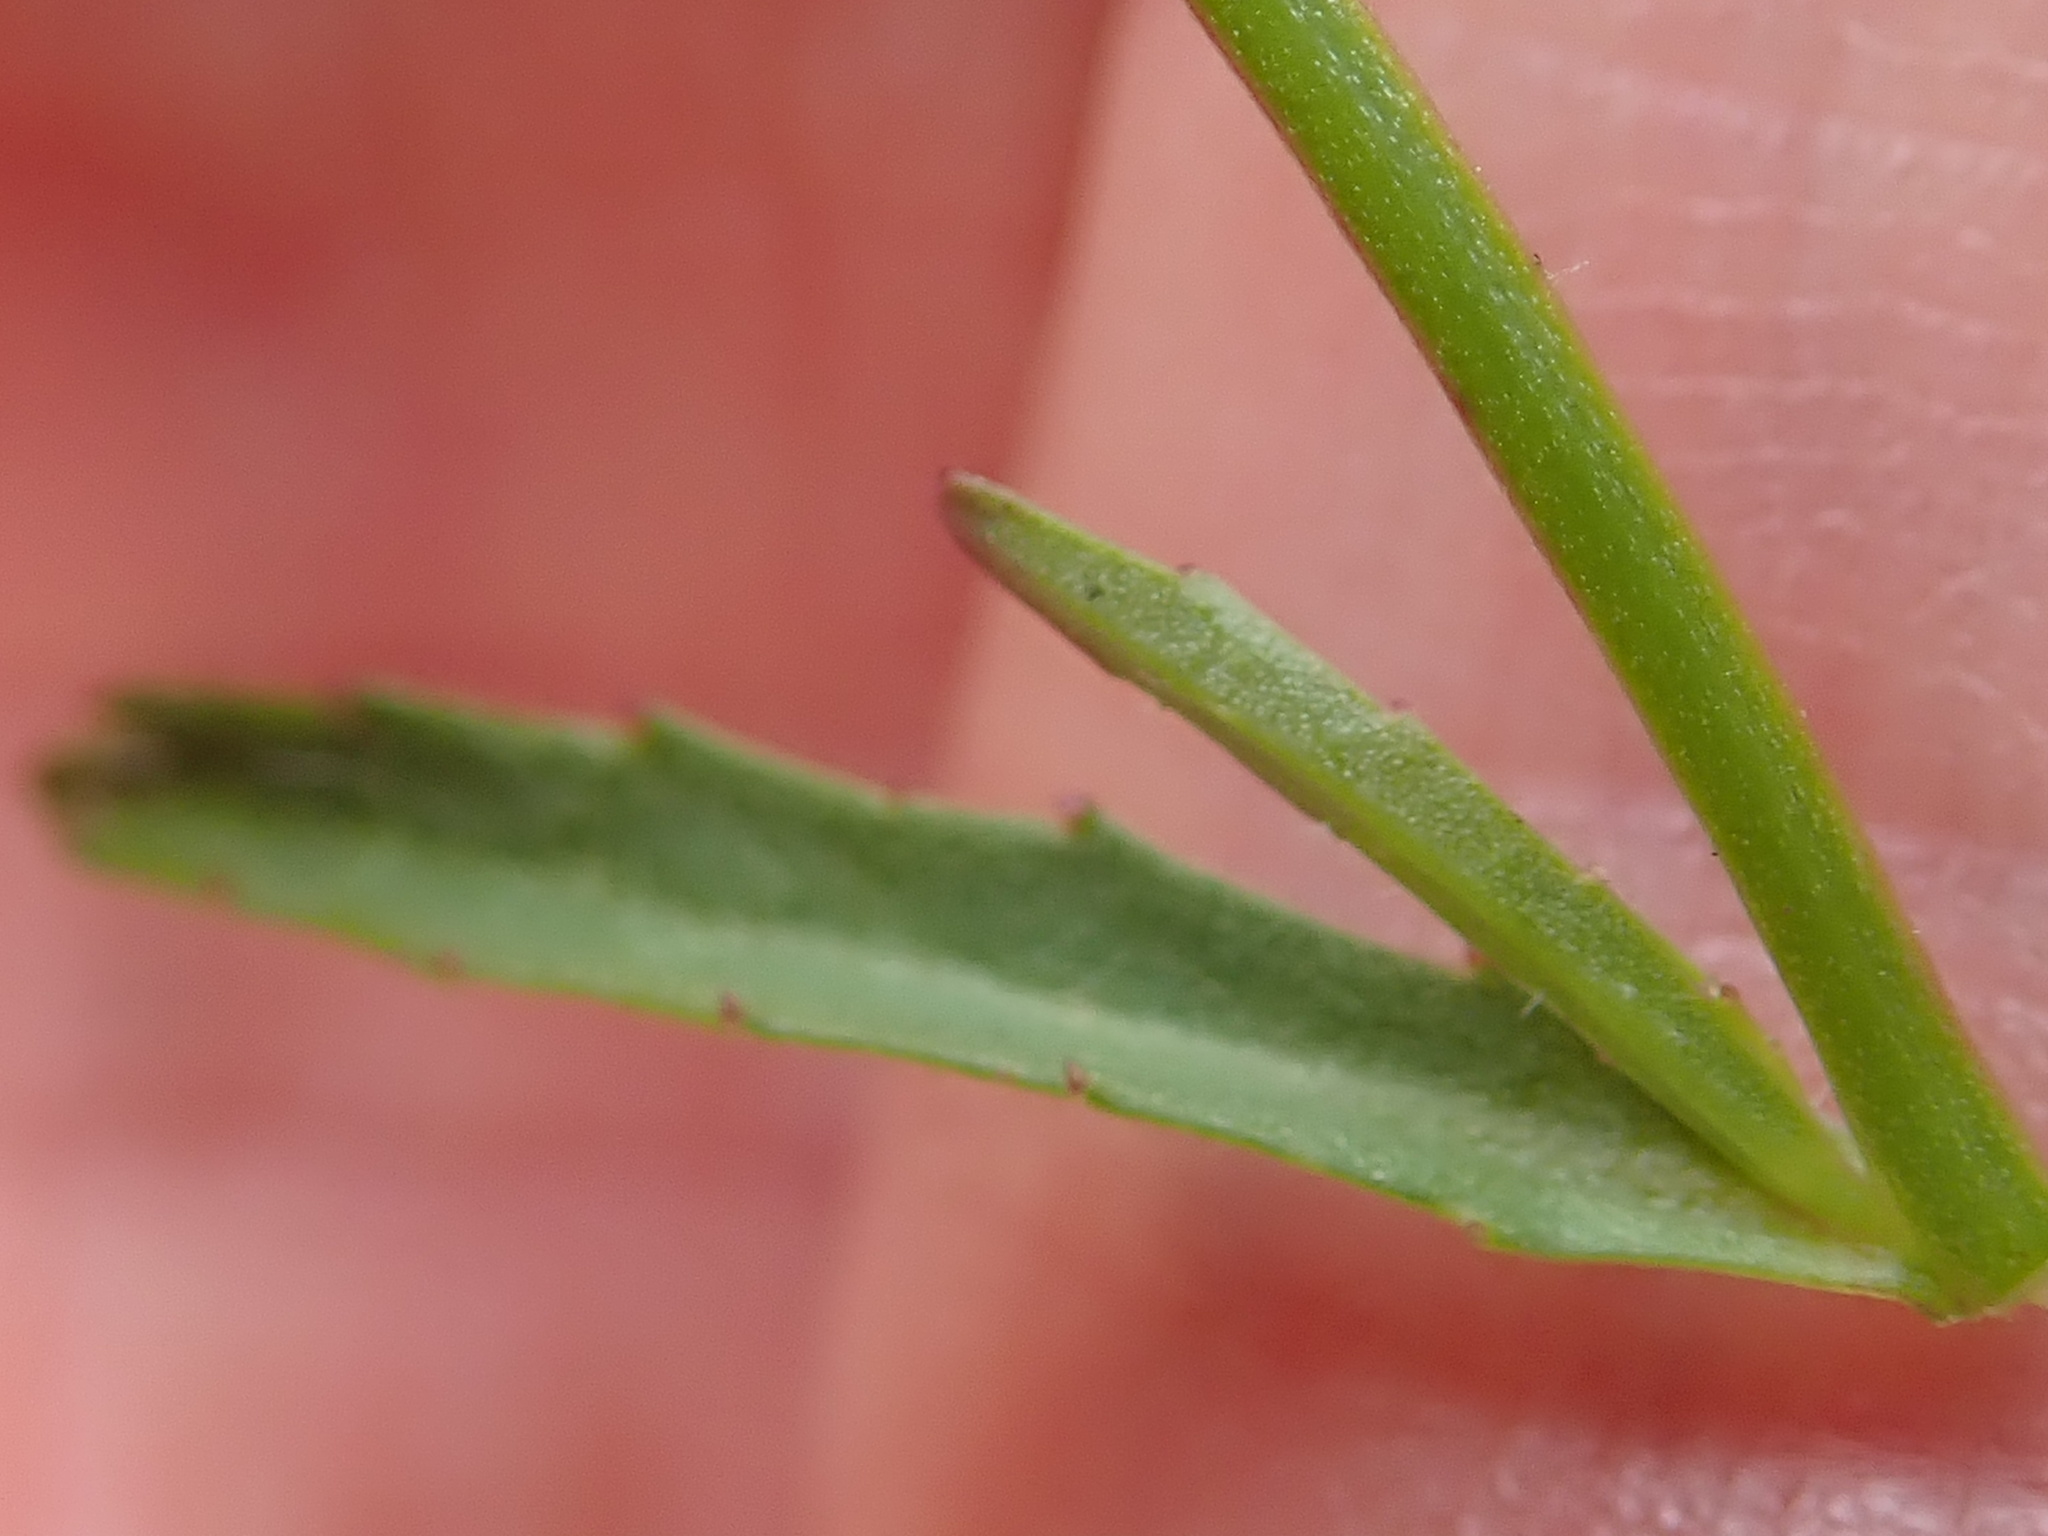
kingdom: Plantae
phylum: Tracheophyta
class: Magnoliopsida
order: Asterales
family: Campanulaceae
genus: Lobelia
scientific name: Lobelia flaccida
